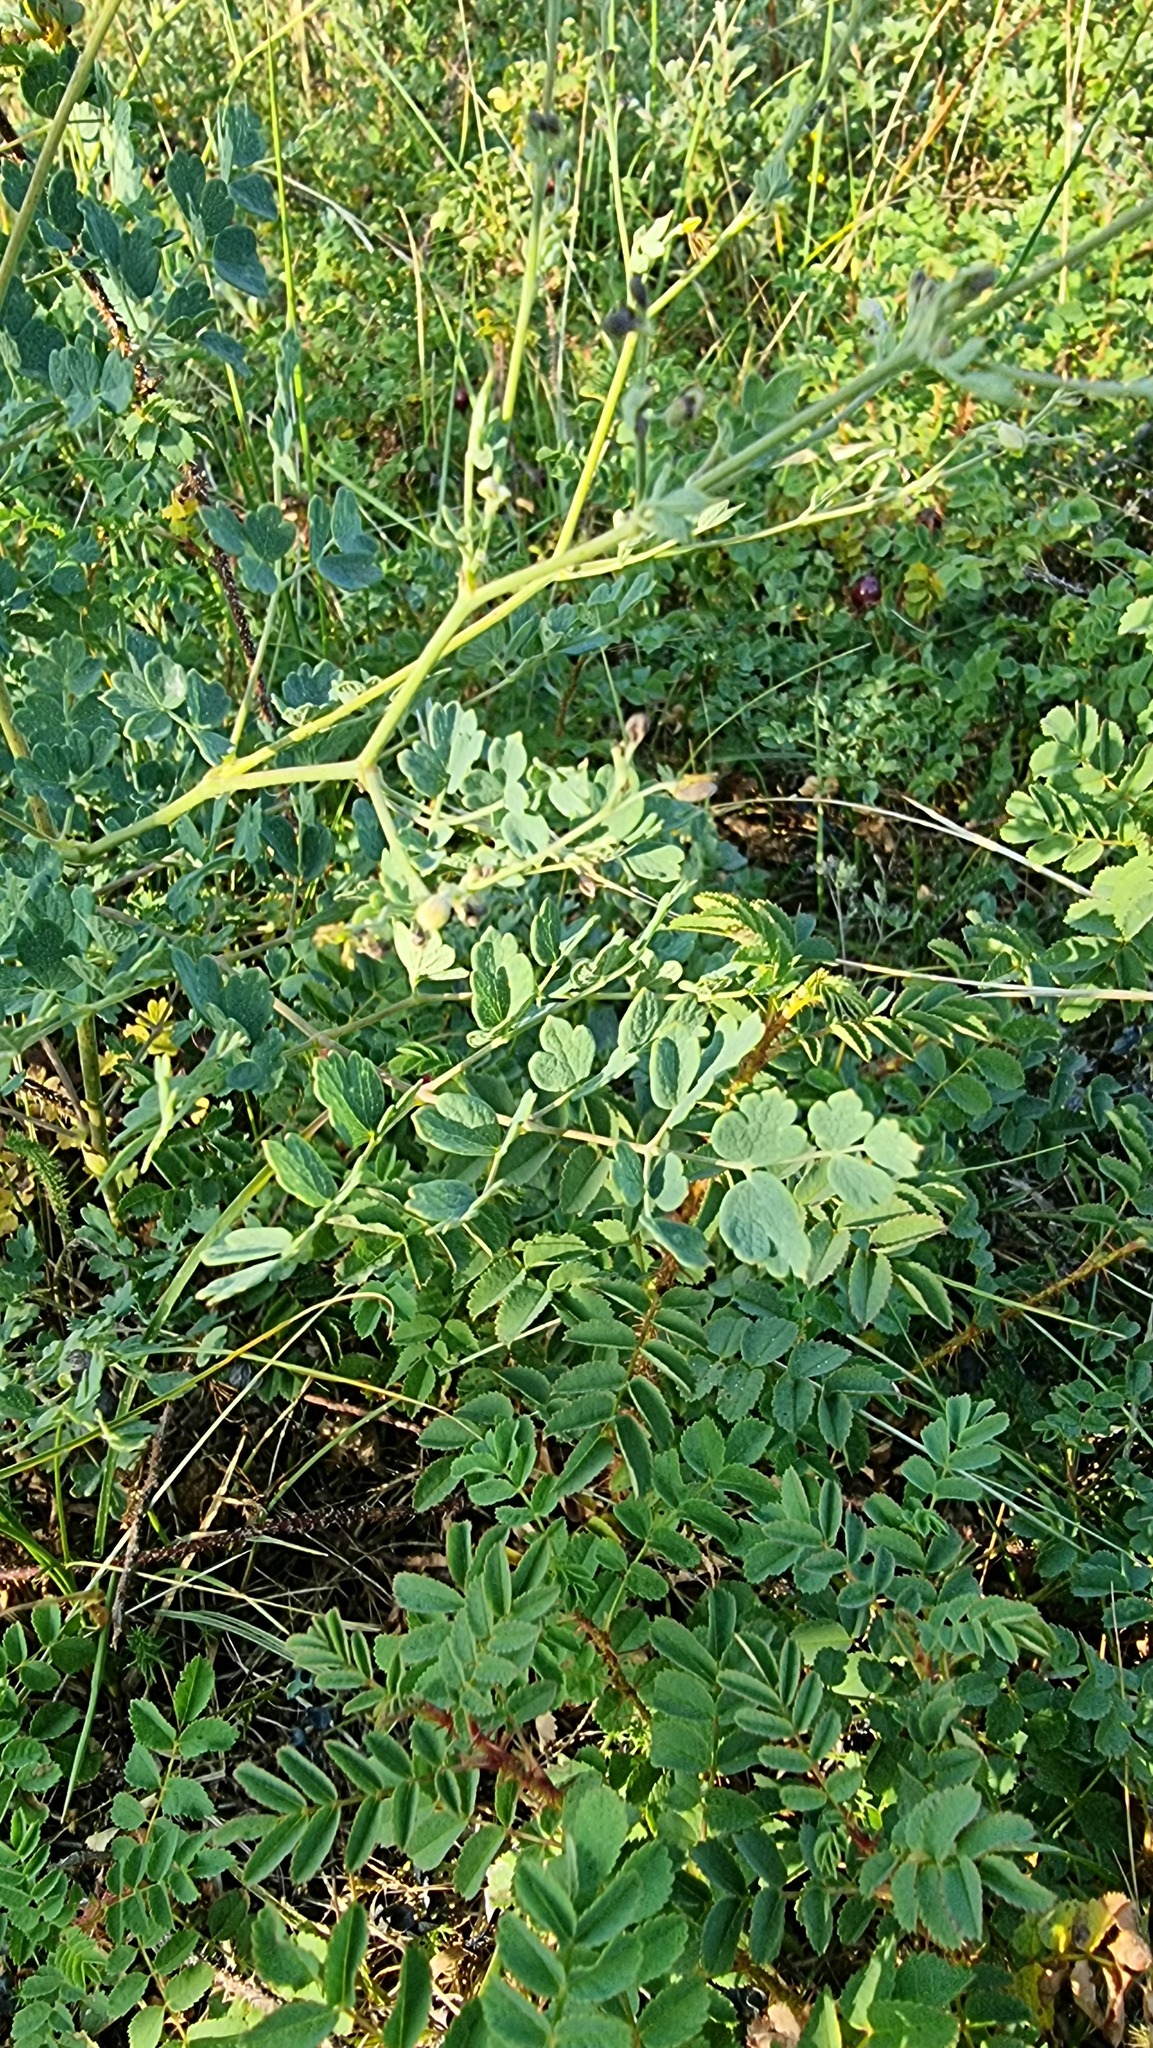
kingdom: Plantae
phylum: Tracheophyta
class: Magnoliopsida
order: Ranunculales
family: Ranunculaceae
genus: Thalictrum
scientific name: Thalictrum minus
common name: Lesser meadow-rue
